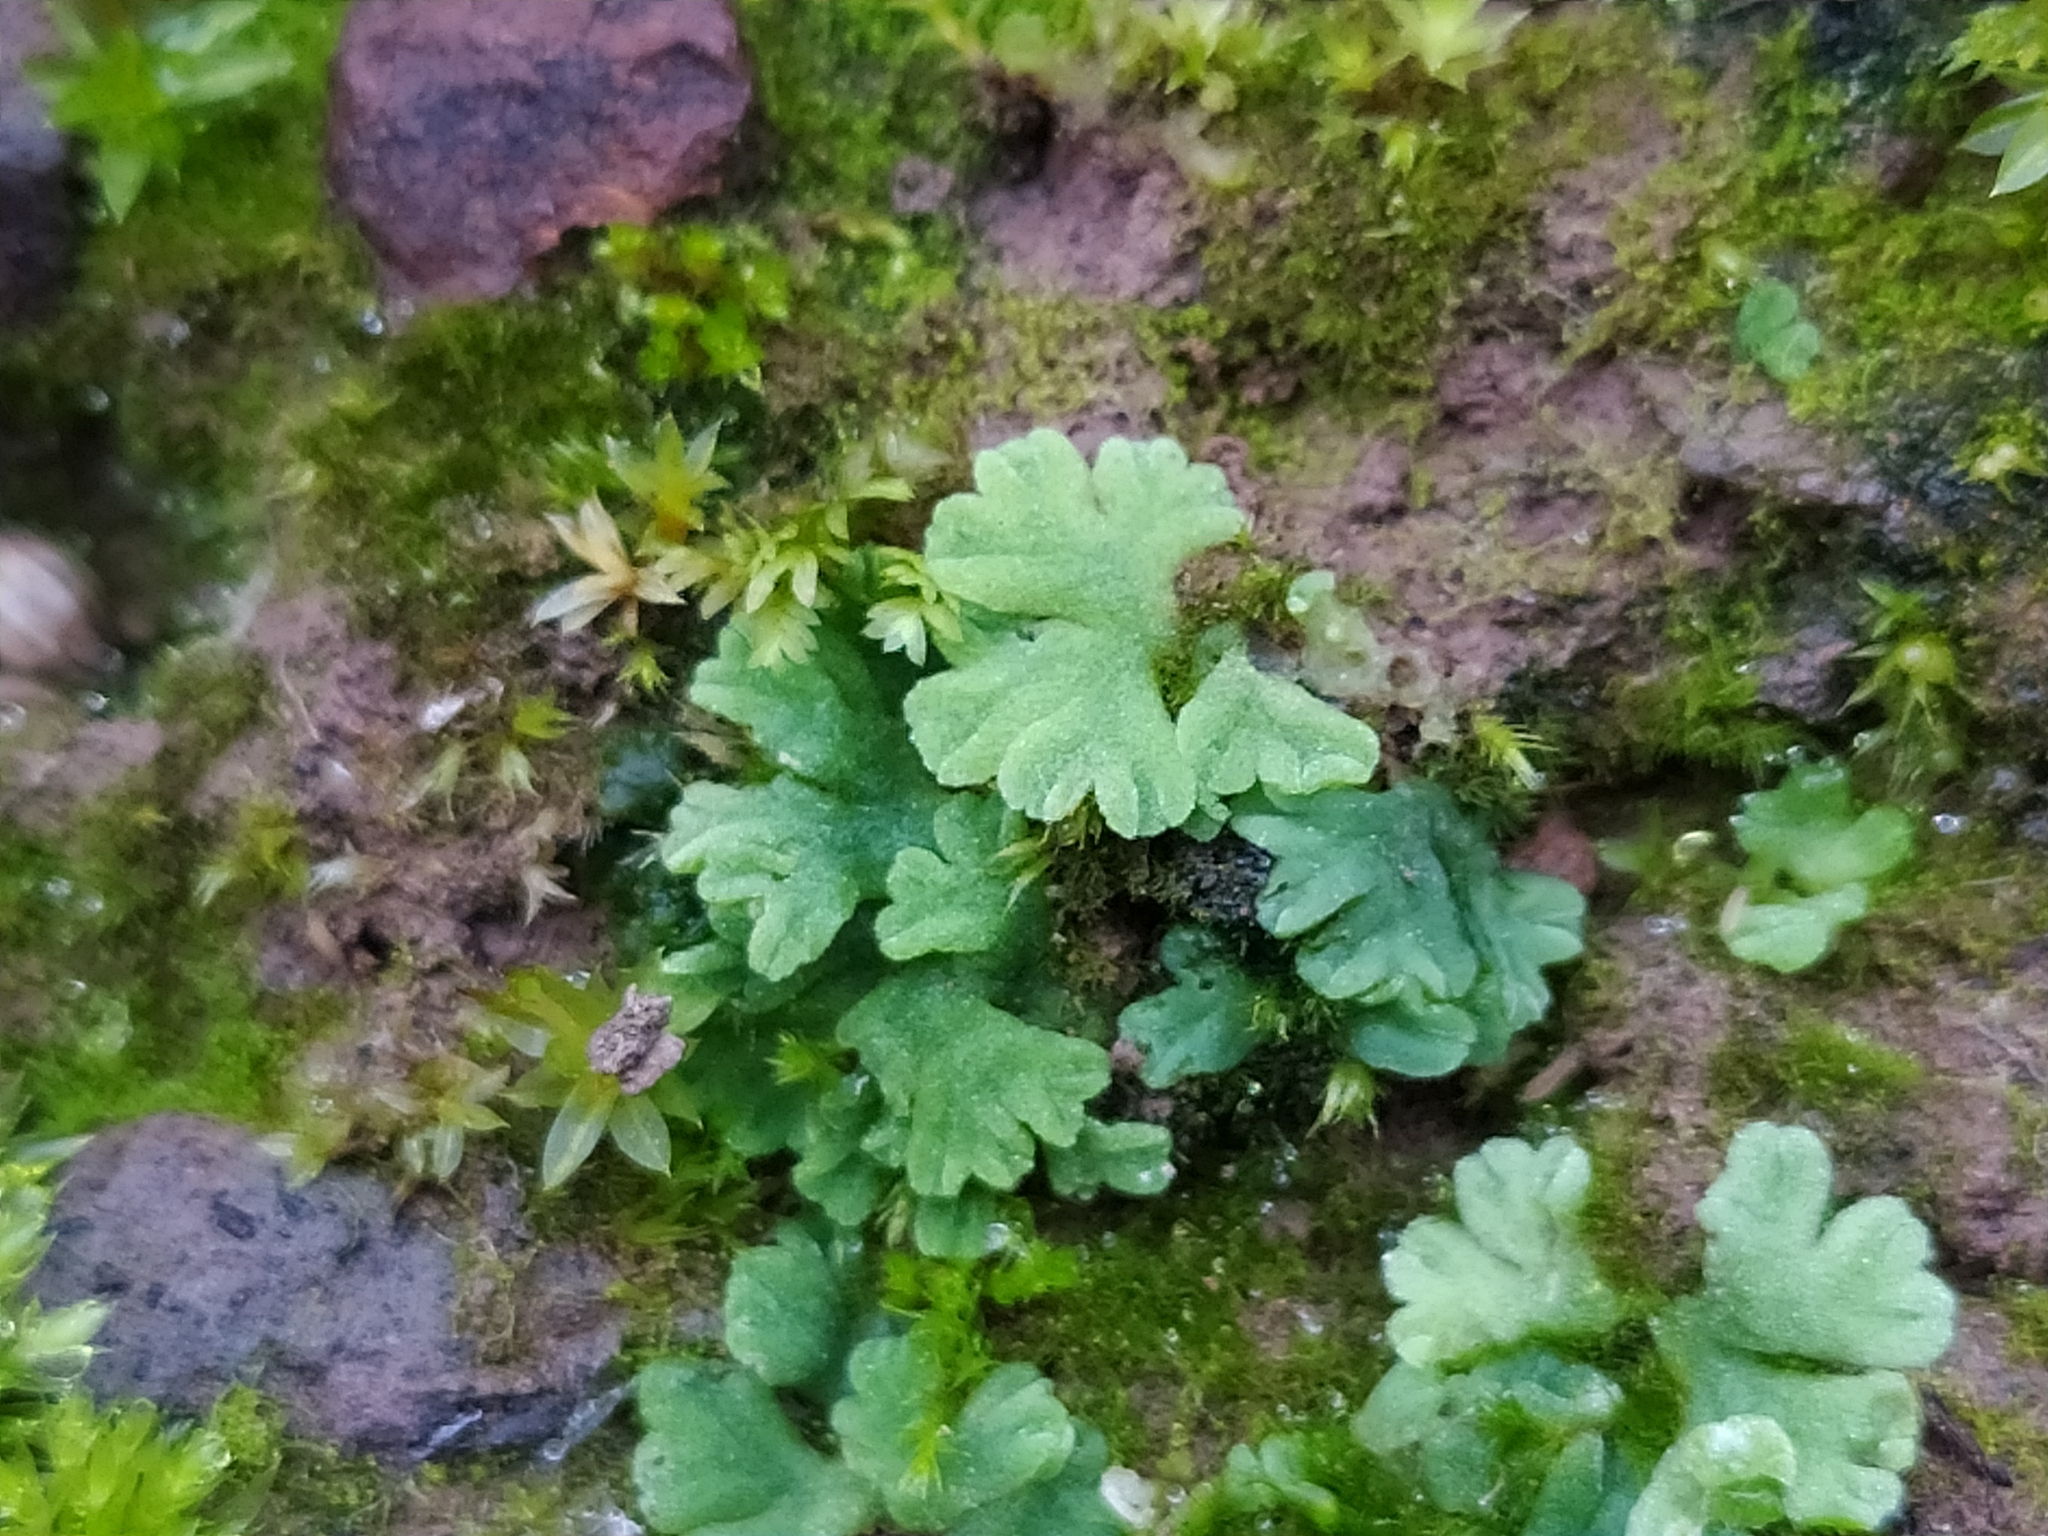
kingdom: Plantae
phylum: Marchantiophyta
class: Marchantiopsida
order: Marchantiales
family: Ricciaceae
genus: Riccia
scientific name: Riccia glauca
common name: Glaucous crystalwort
